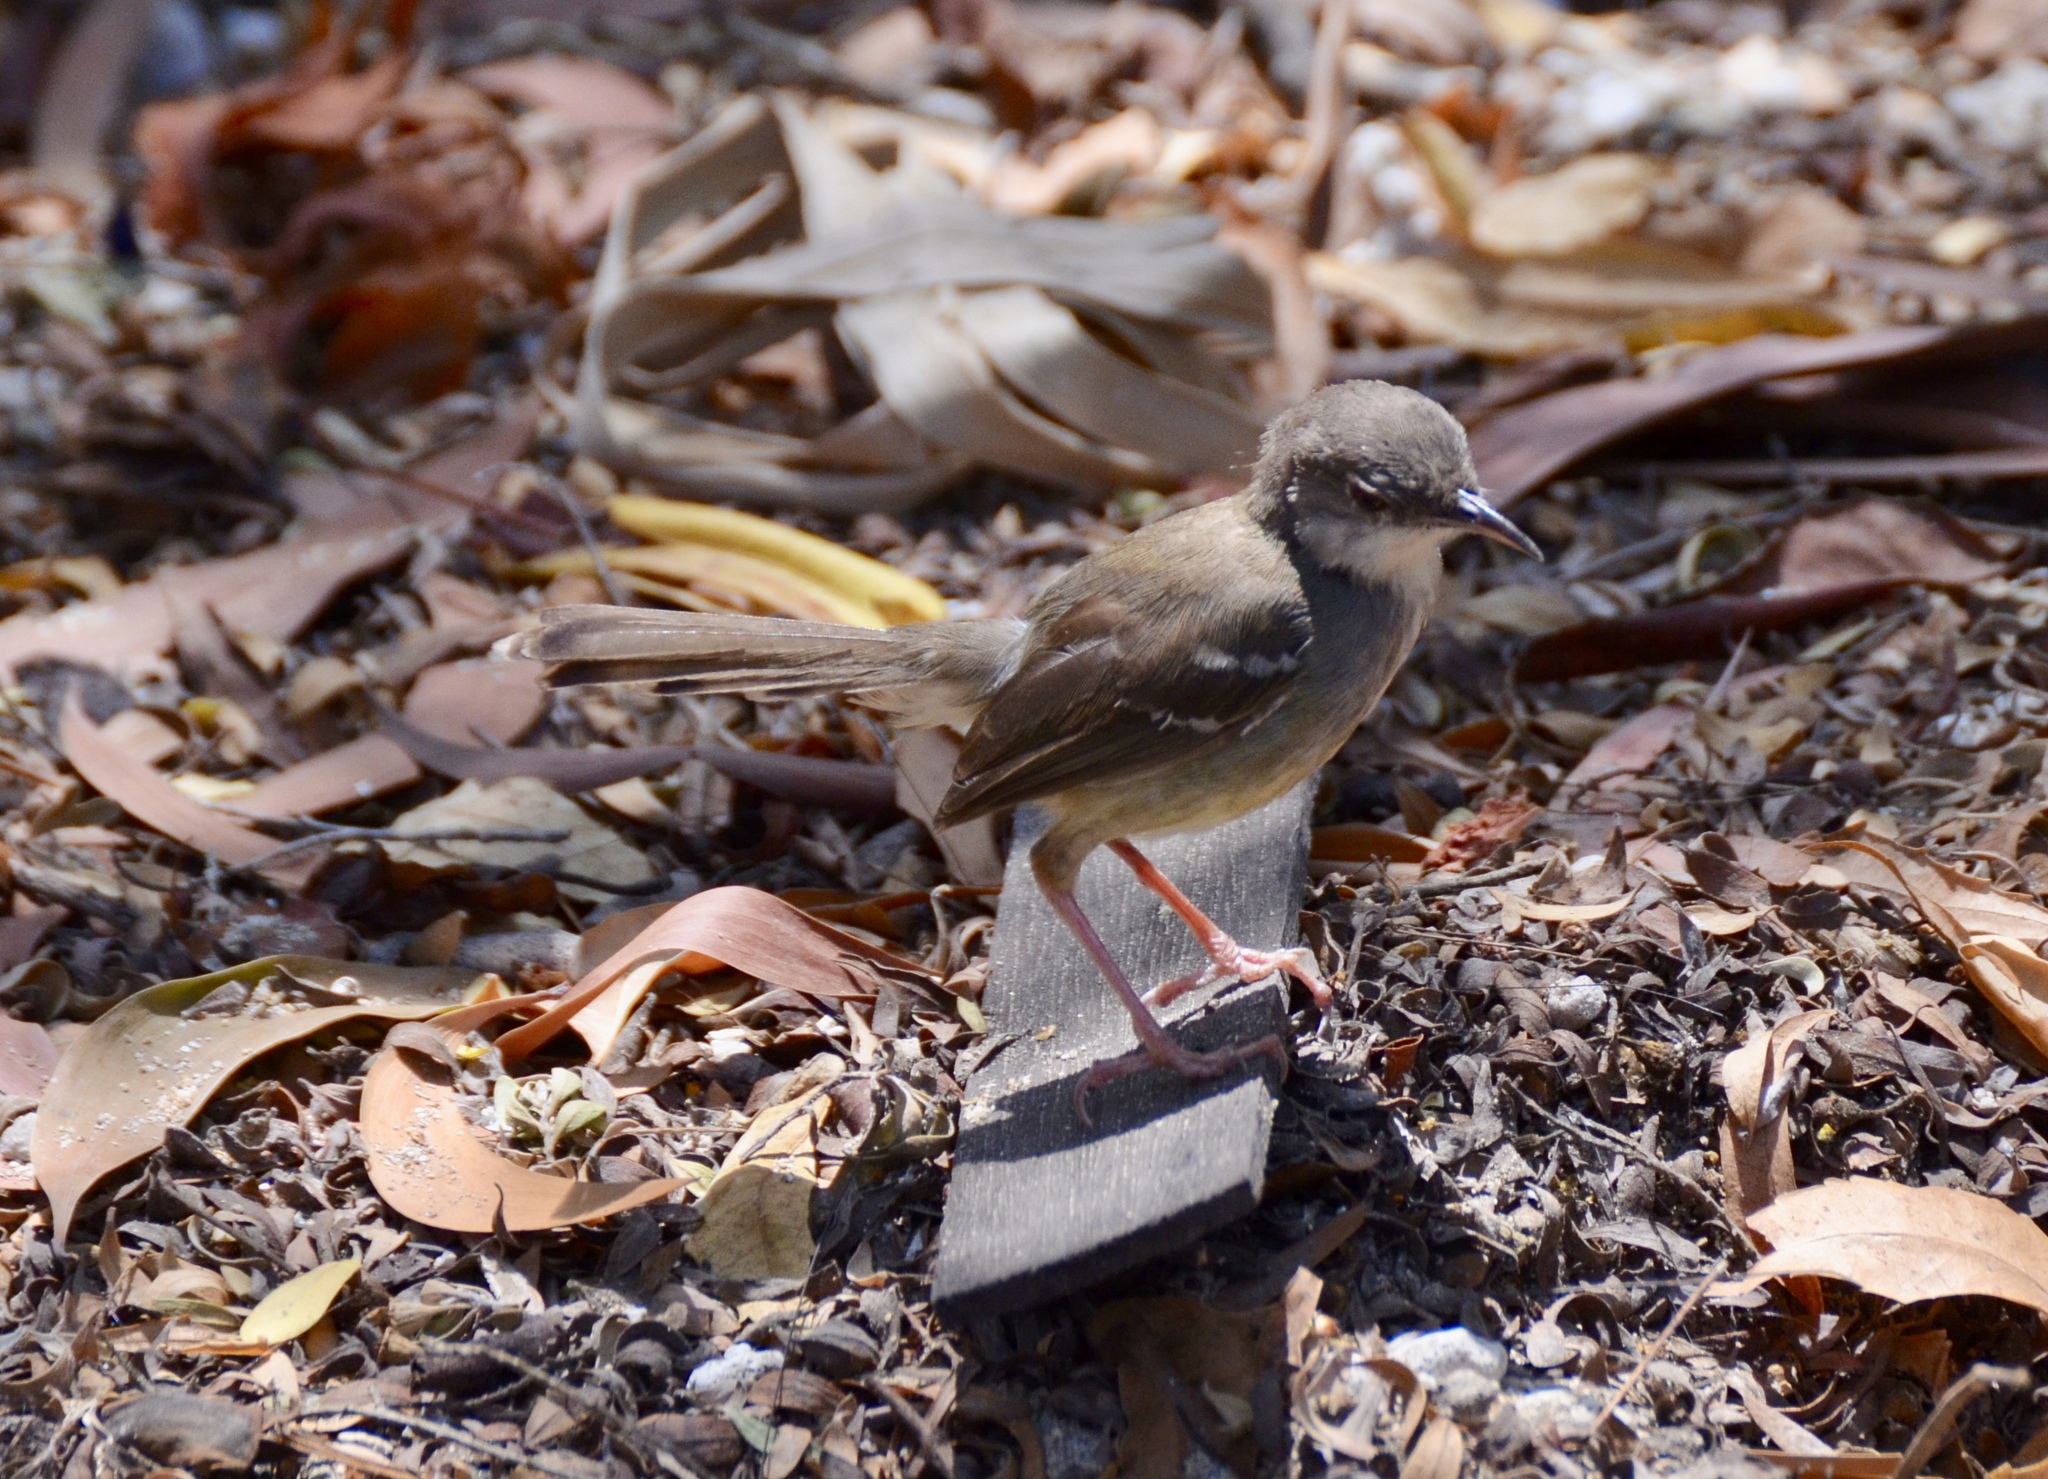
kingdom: Animalia
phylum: Chordata
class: Aves
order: Passeriformes
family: Cisticolidae
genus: Prinia
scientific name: Prinia familiaris
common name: Bar-winged prinia
